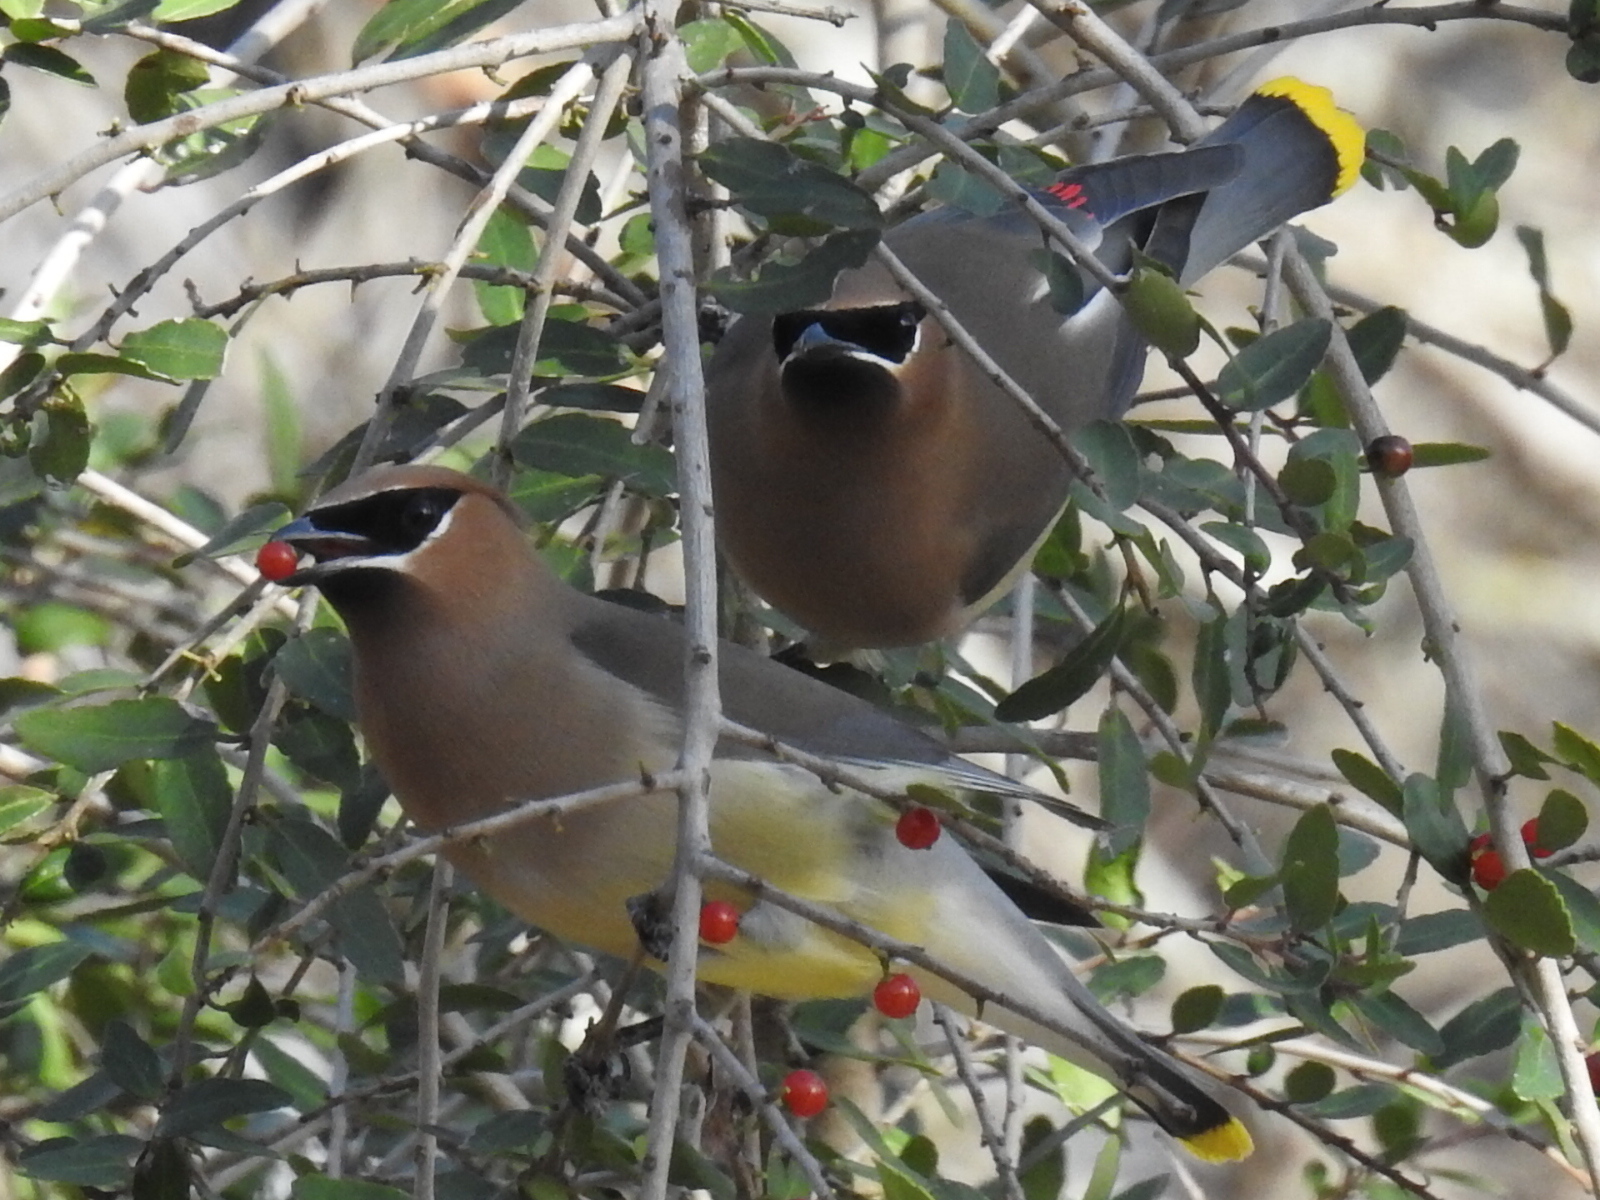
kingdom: Animalia
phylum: Chordata
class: Aves
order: Passeriformes
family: Bombycillidae
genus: Bombycilla
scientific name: Bombycilla cedrorum
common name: Cedar waxwing
